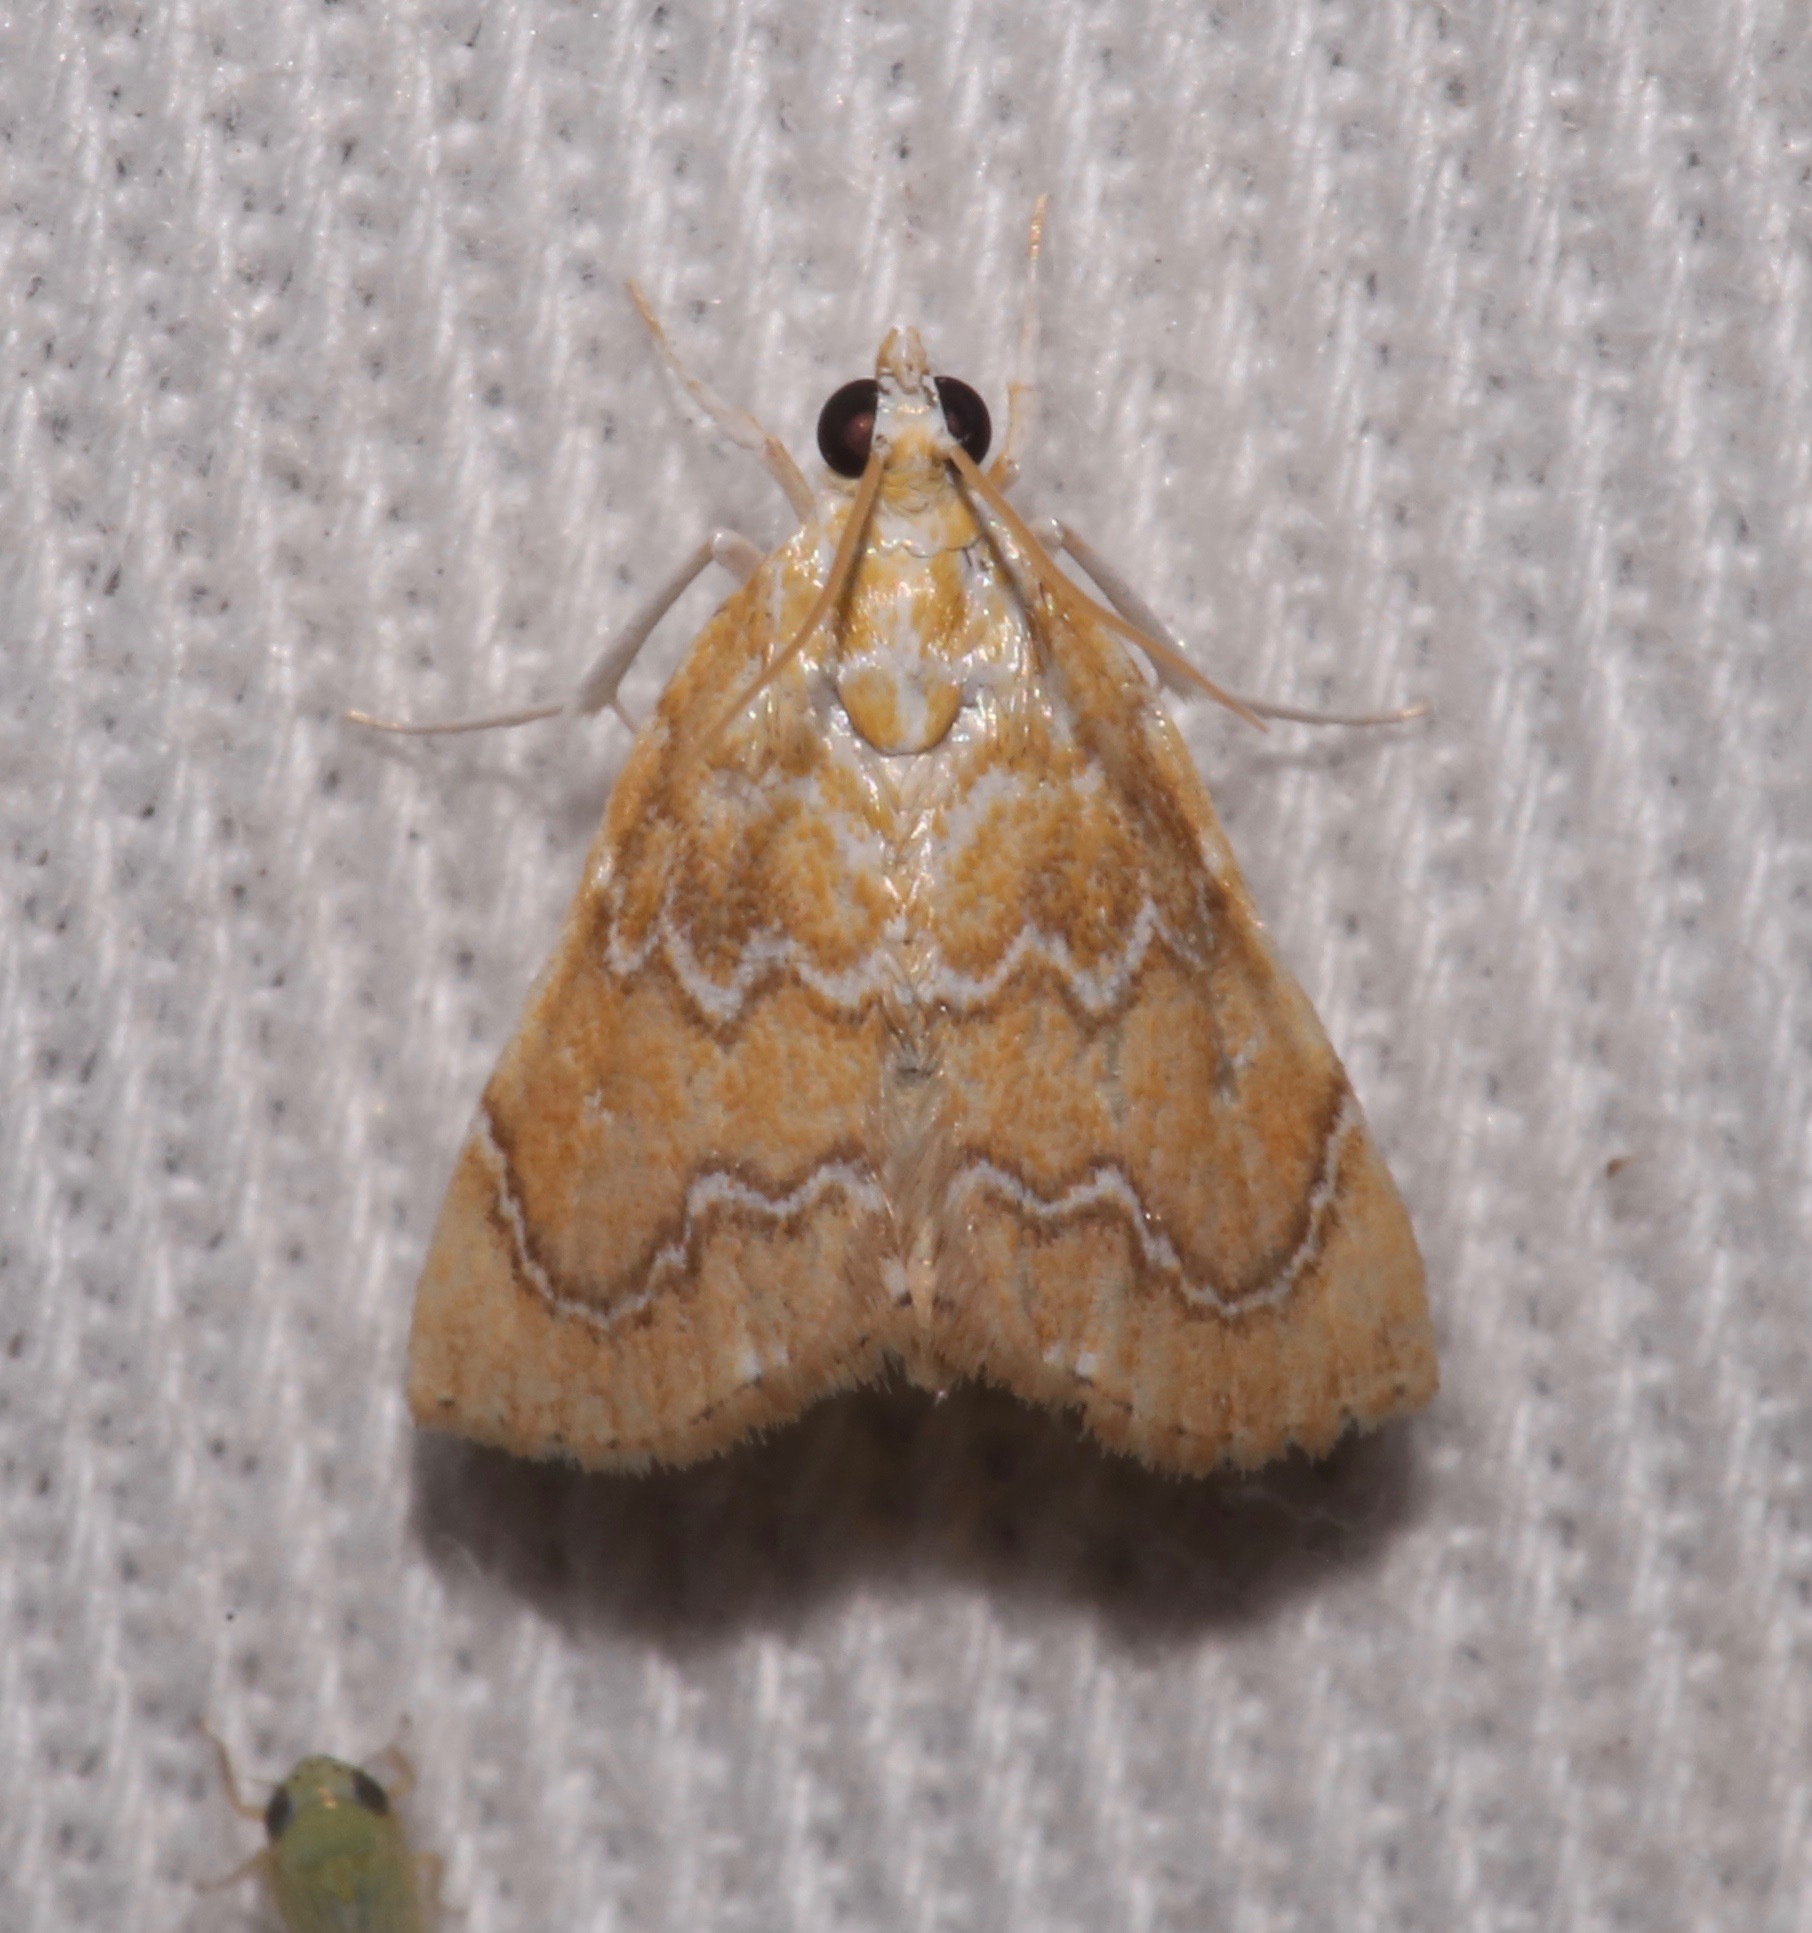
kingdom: Animalia
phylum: Arthropoda
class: Insecta
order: Lepidoptera
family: Crambidae
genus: Glaphyria
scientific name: Glaphyria sesquistrialis
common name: White-roped glaphyria
